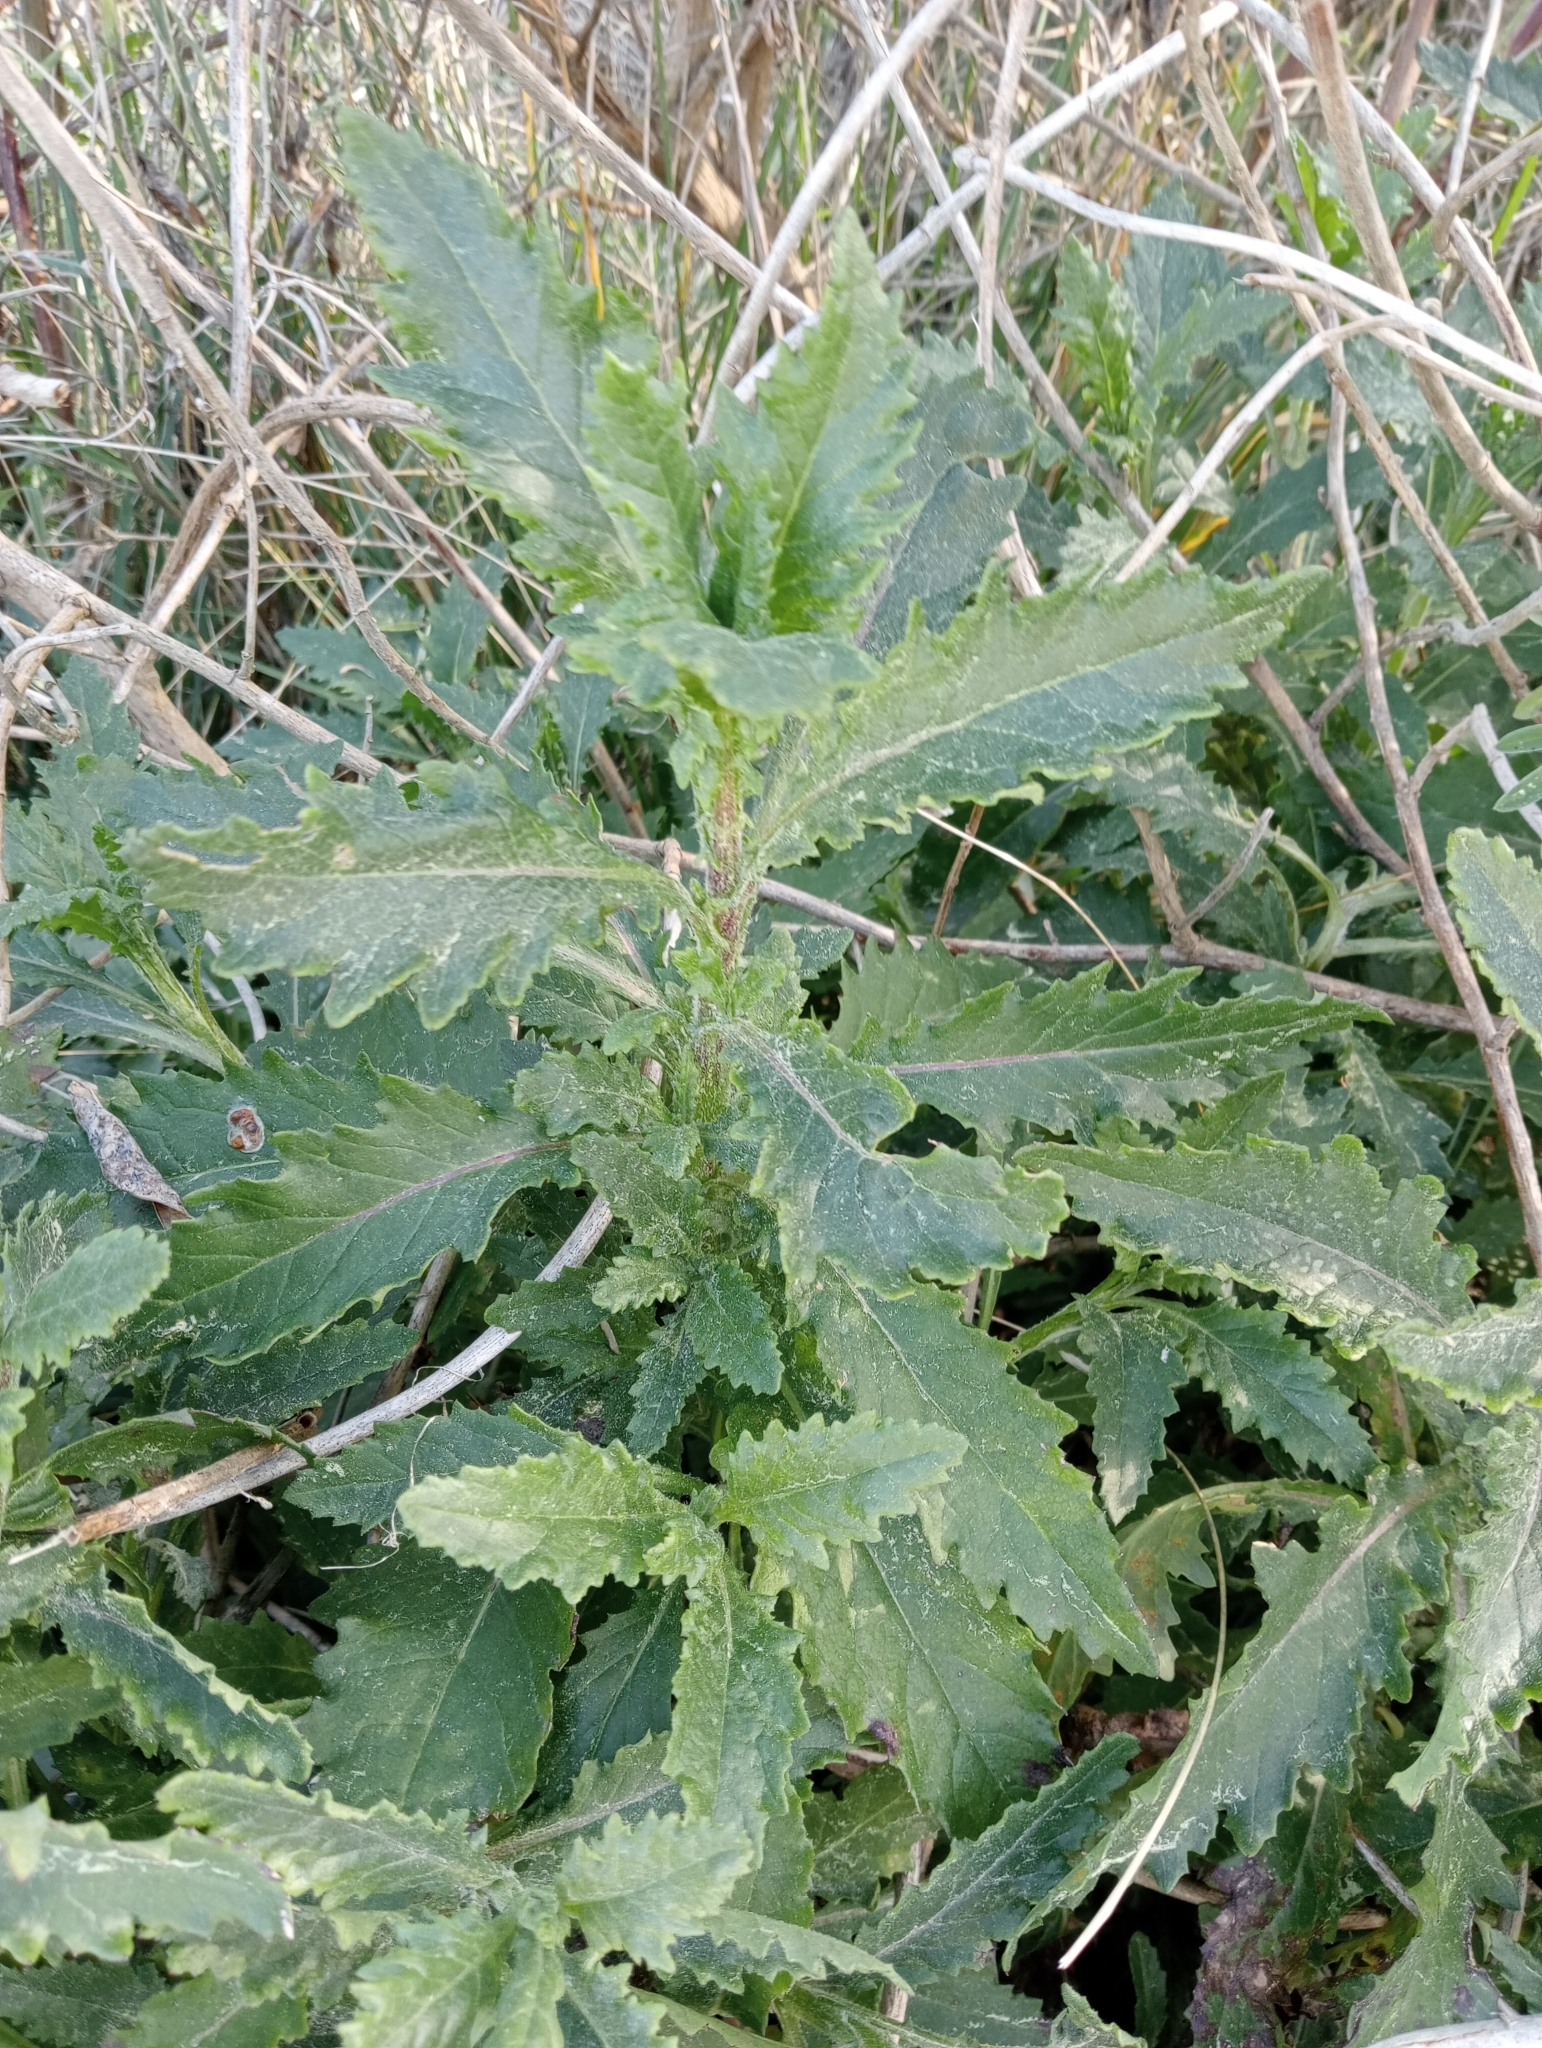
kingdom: Plantae
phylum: Tracheophyta
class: Magnoliopsida
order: Asterales
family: Asteraceae
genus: Senecio
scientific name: Senecio biserratus
